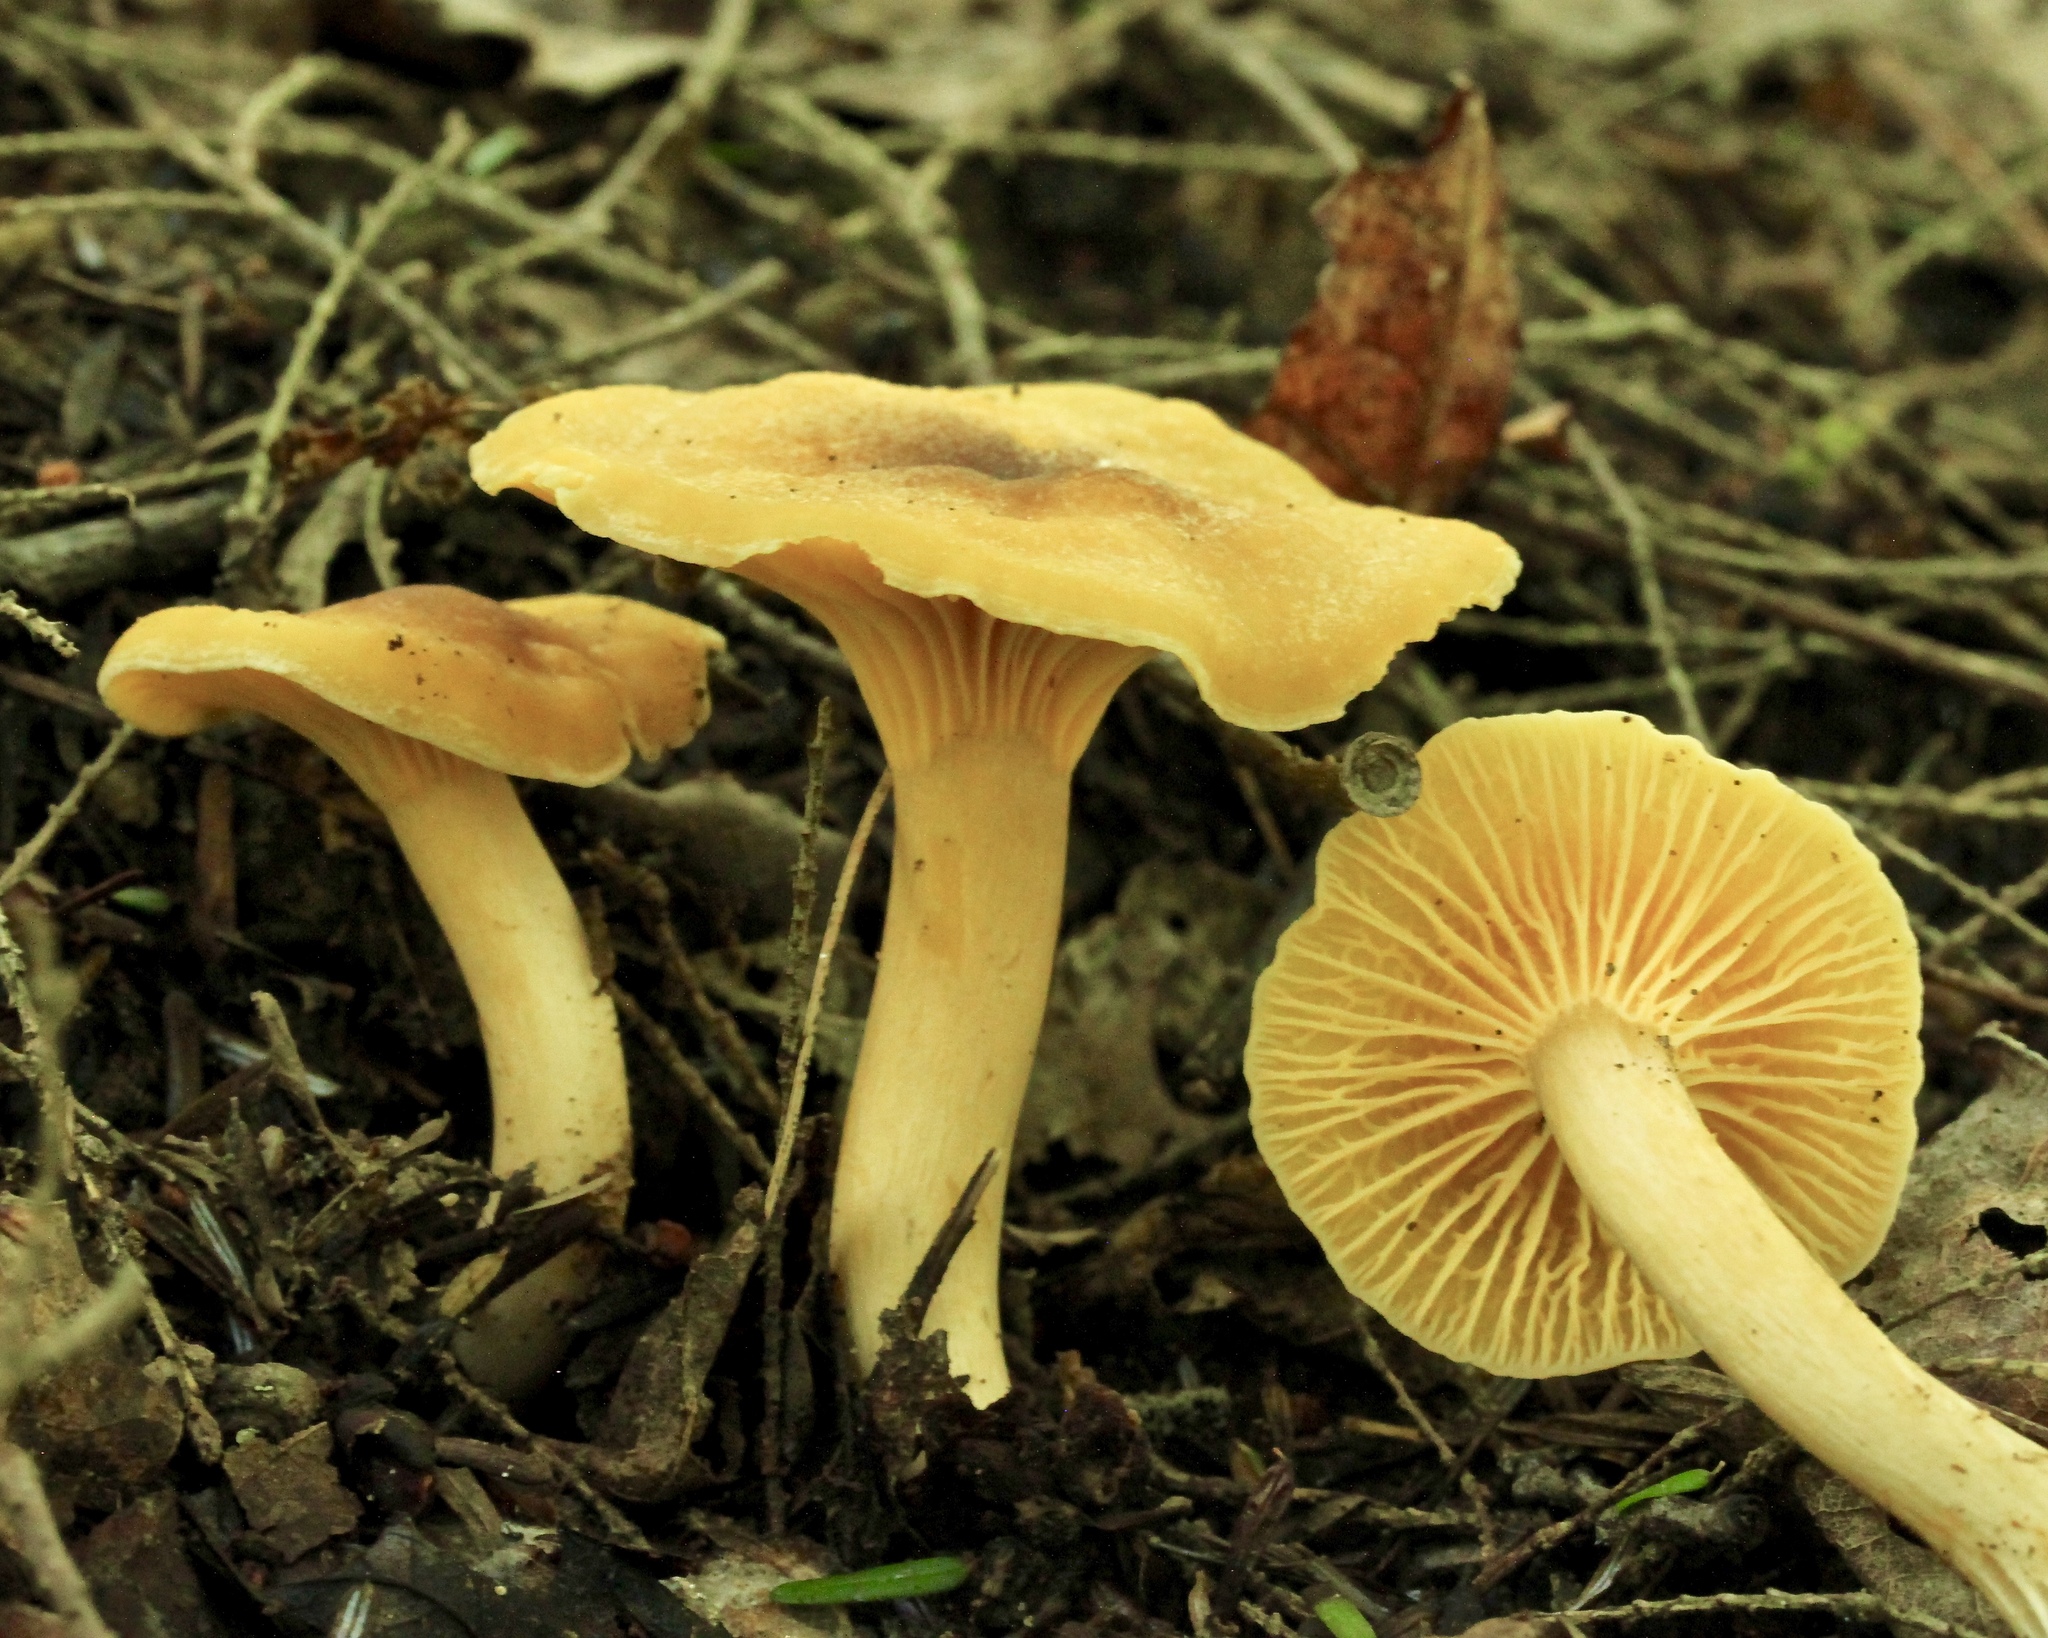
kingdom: Fungi
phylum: Basidiomycota
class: Agaricomycetes
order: Cantharellales
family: Hydnaceae
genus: Cantharellus
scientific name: Cantharellus appalachiensis
